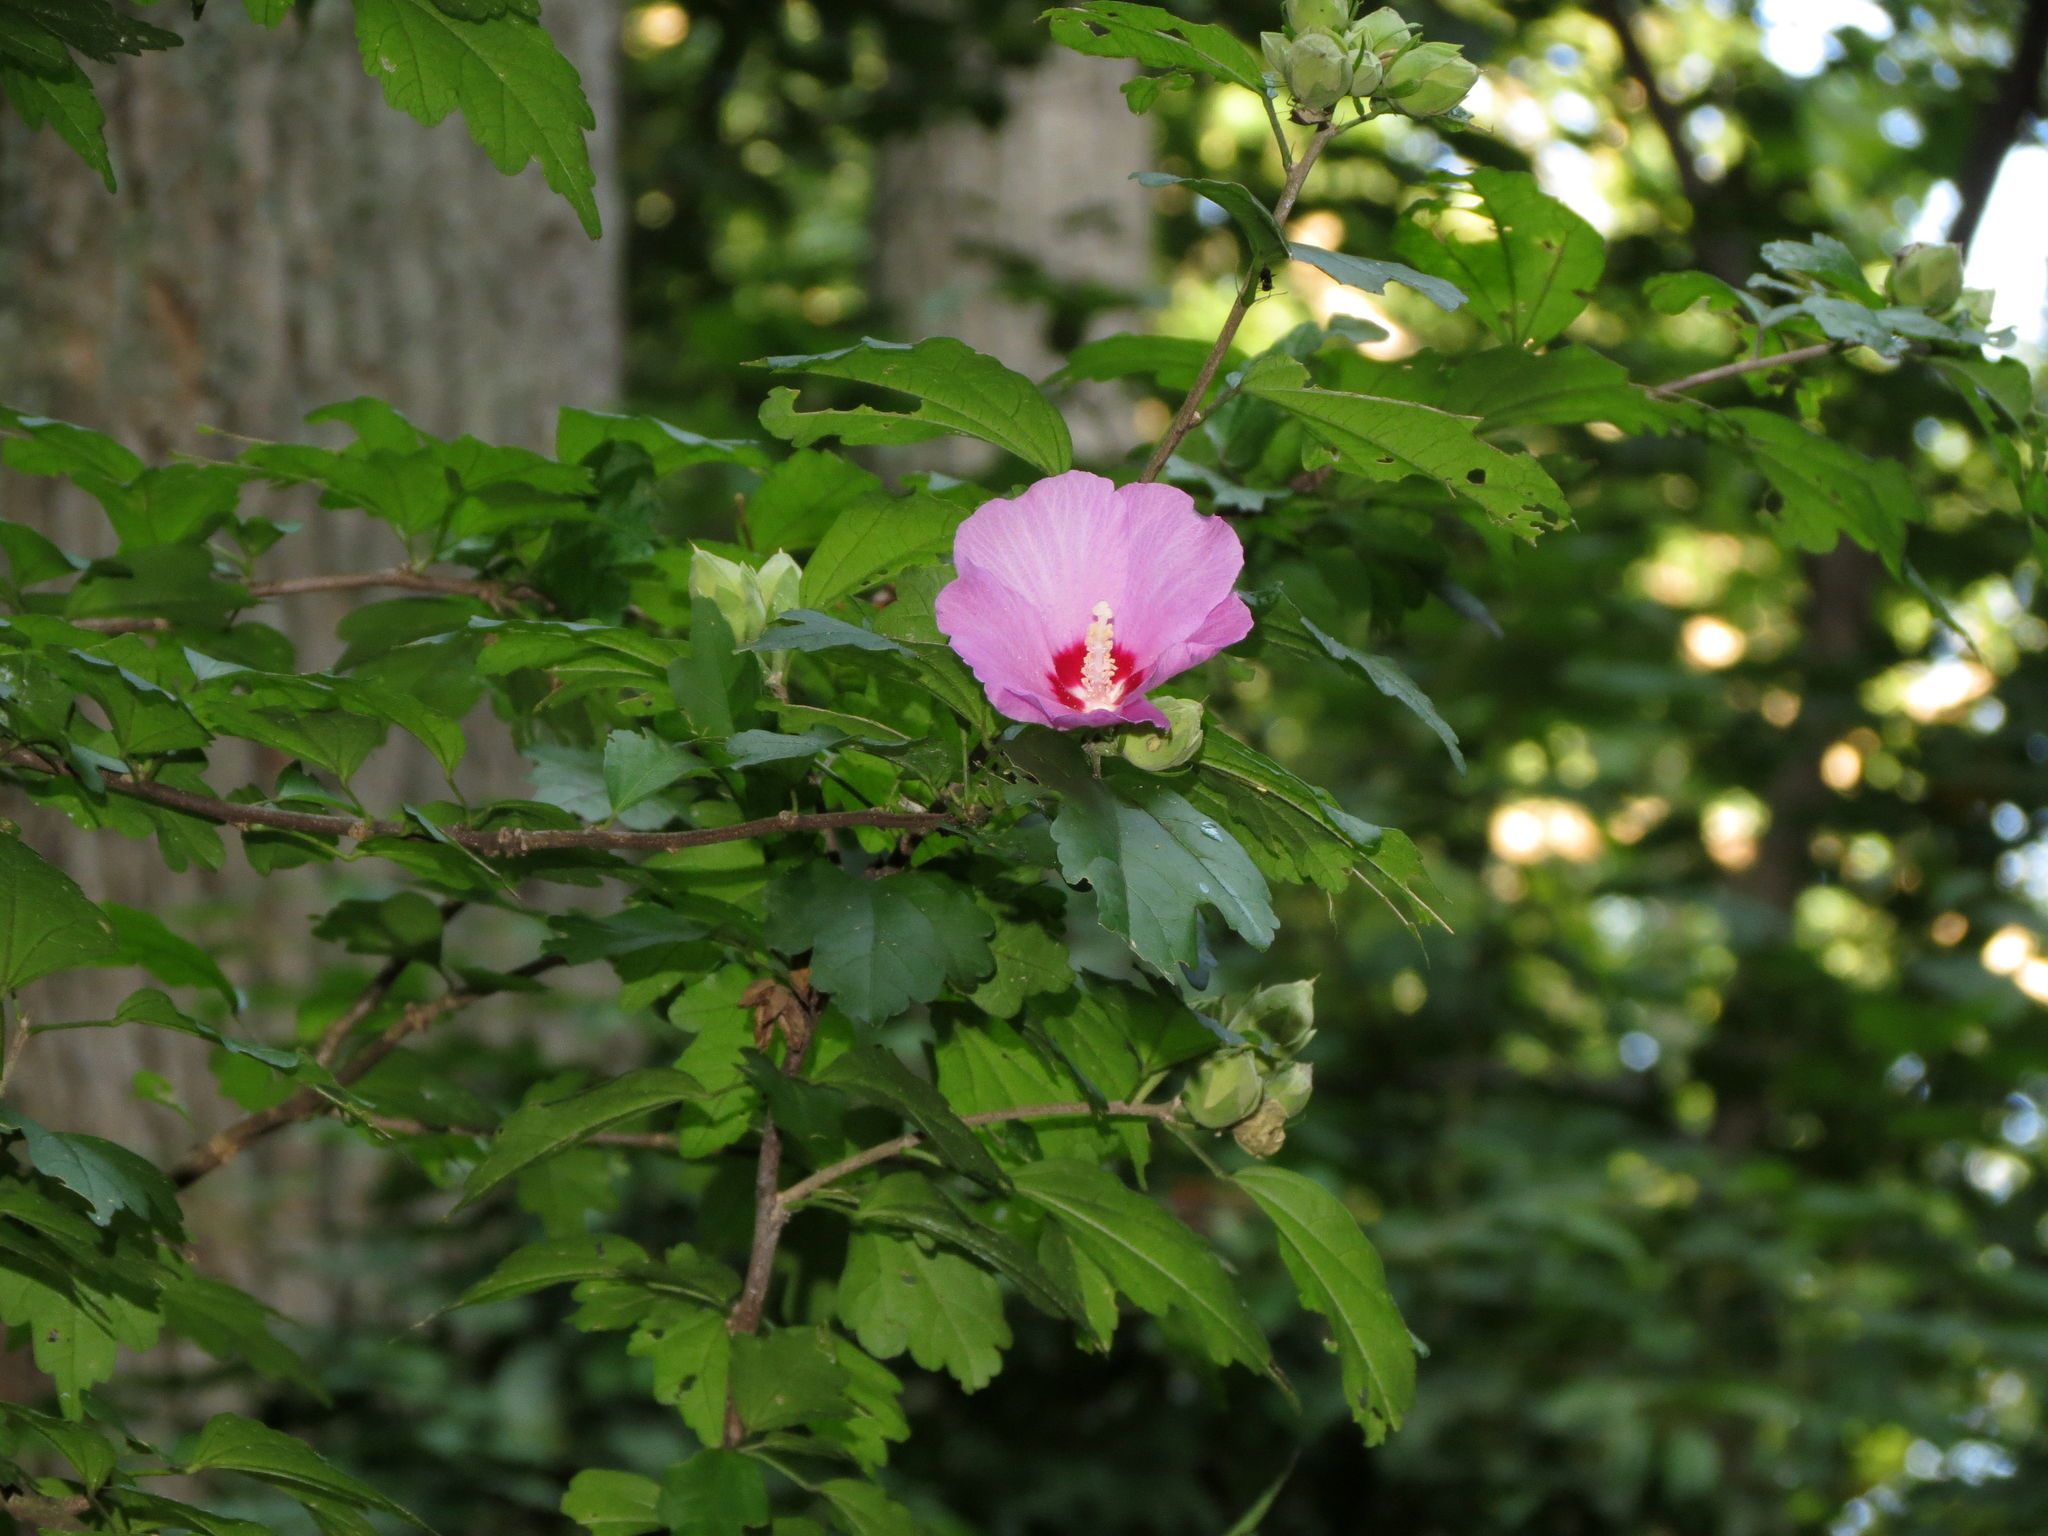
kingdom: Plantae
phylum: Tracheophyta
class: Magnoliopsida
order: Malvales
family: Malvaceae
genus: Hibiscus
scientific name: Hibiscus syriacus
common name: Syrian ketmia
